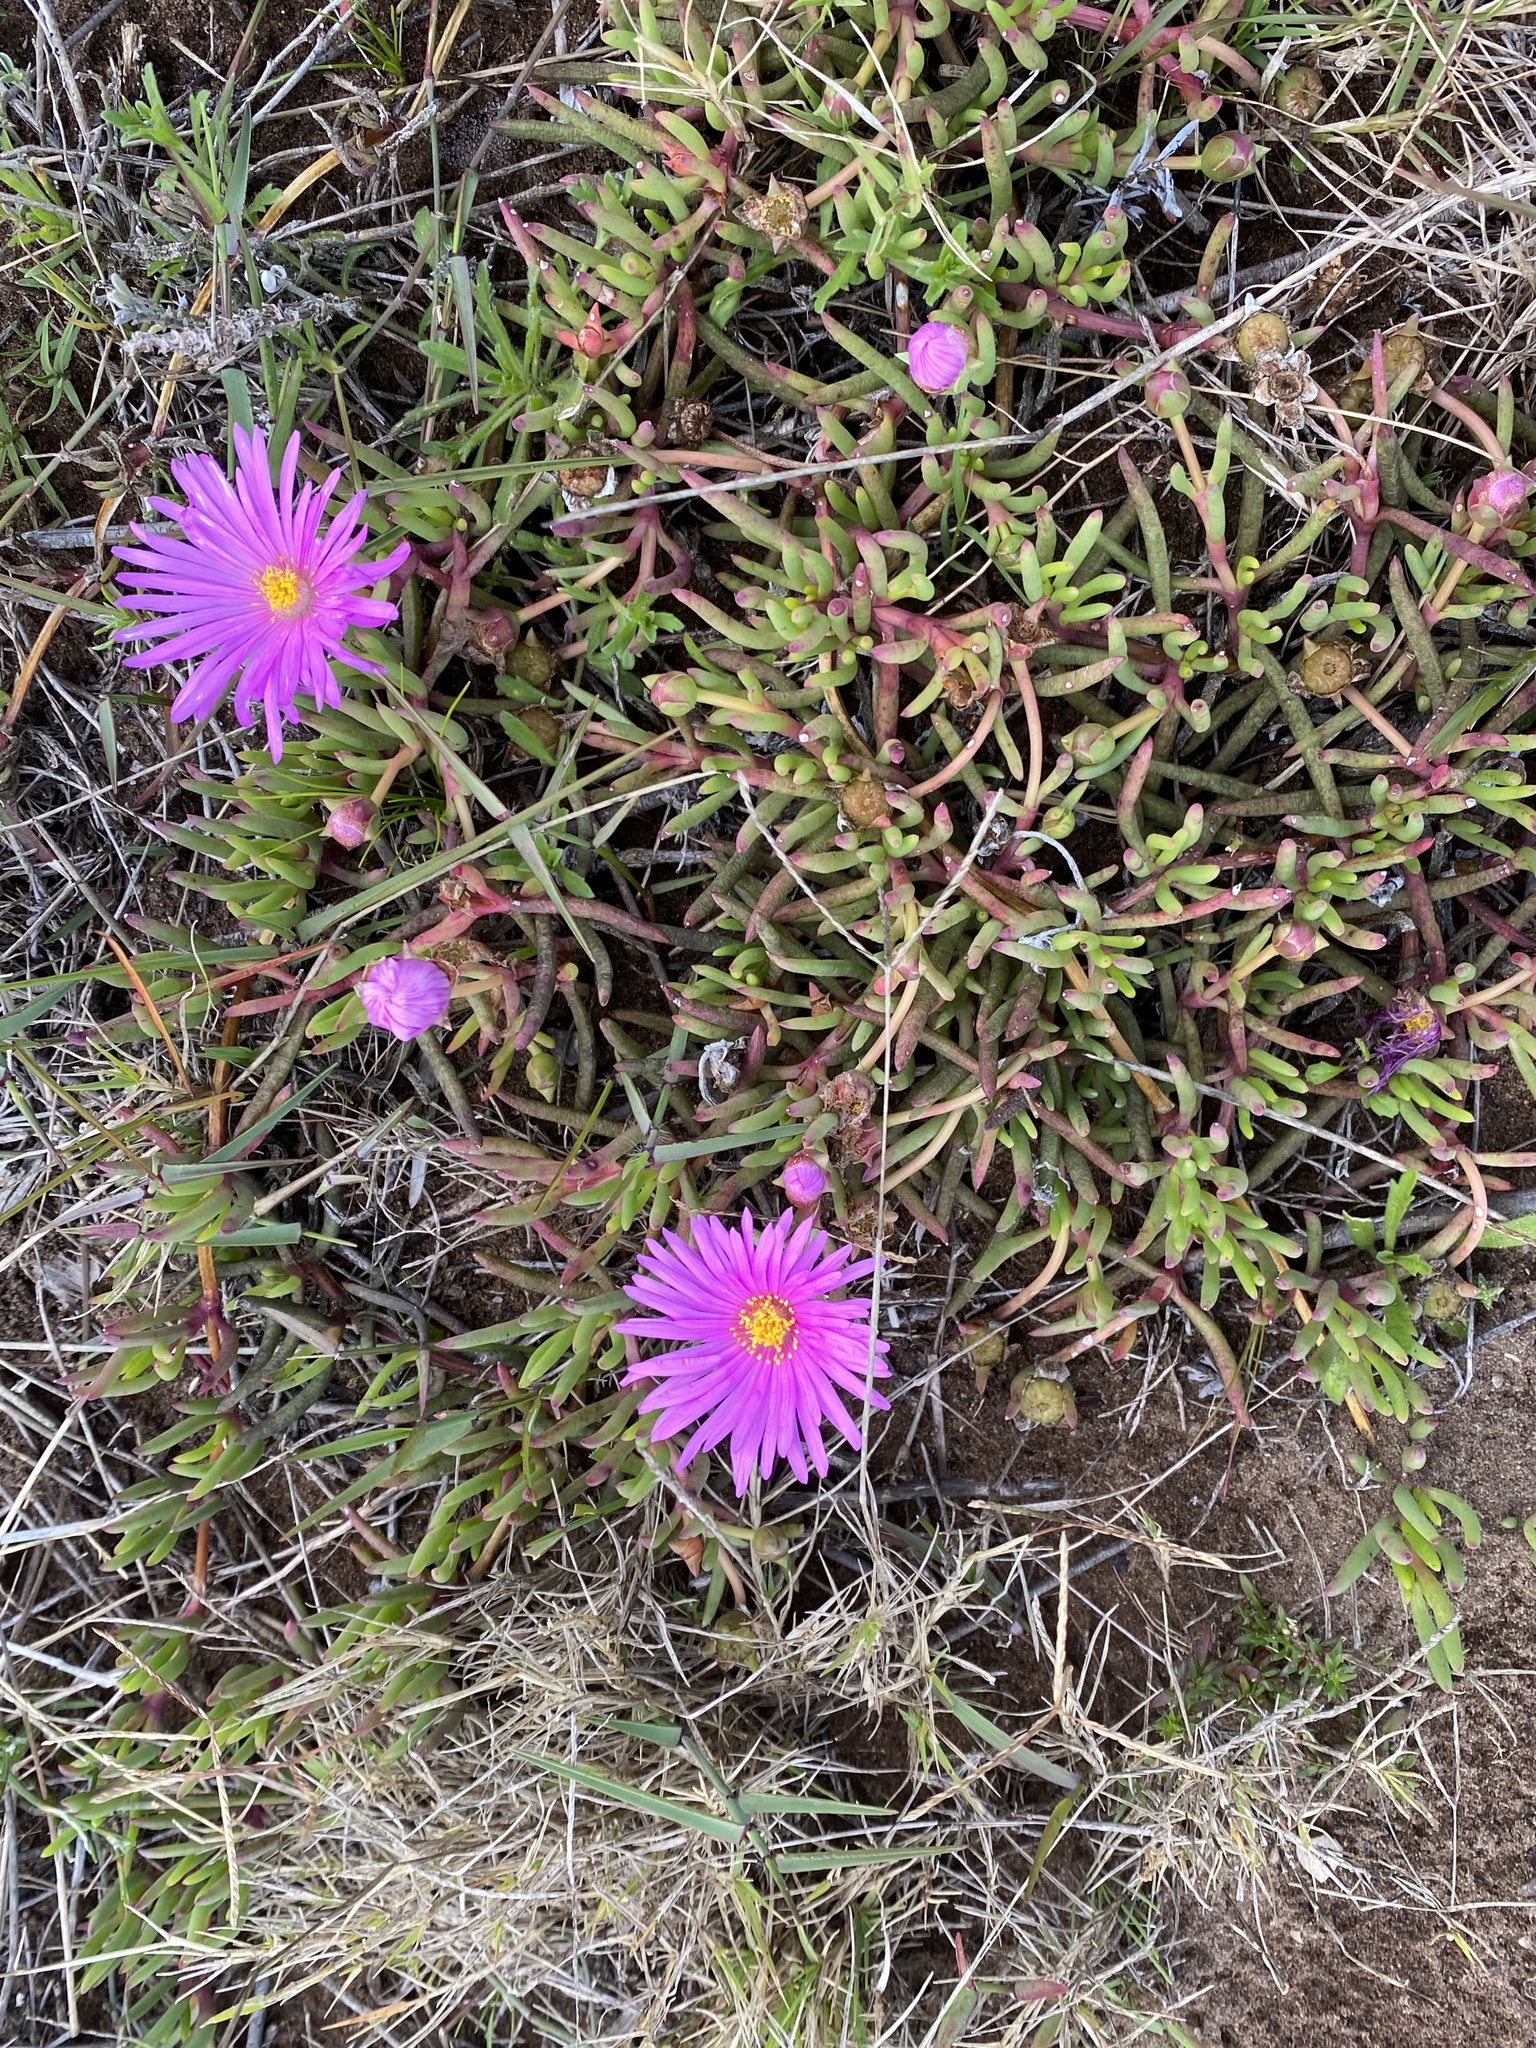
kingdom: Plantae
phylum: Tracheophyta
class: Magnoliopsida
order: Caryophyllales
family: Aizoaceae
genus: Jordaaniella
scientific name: Jordaaniella dubia
